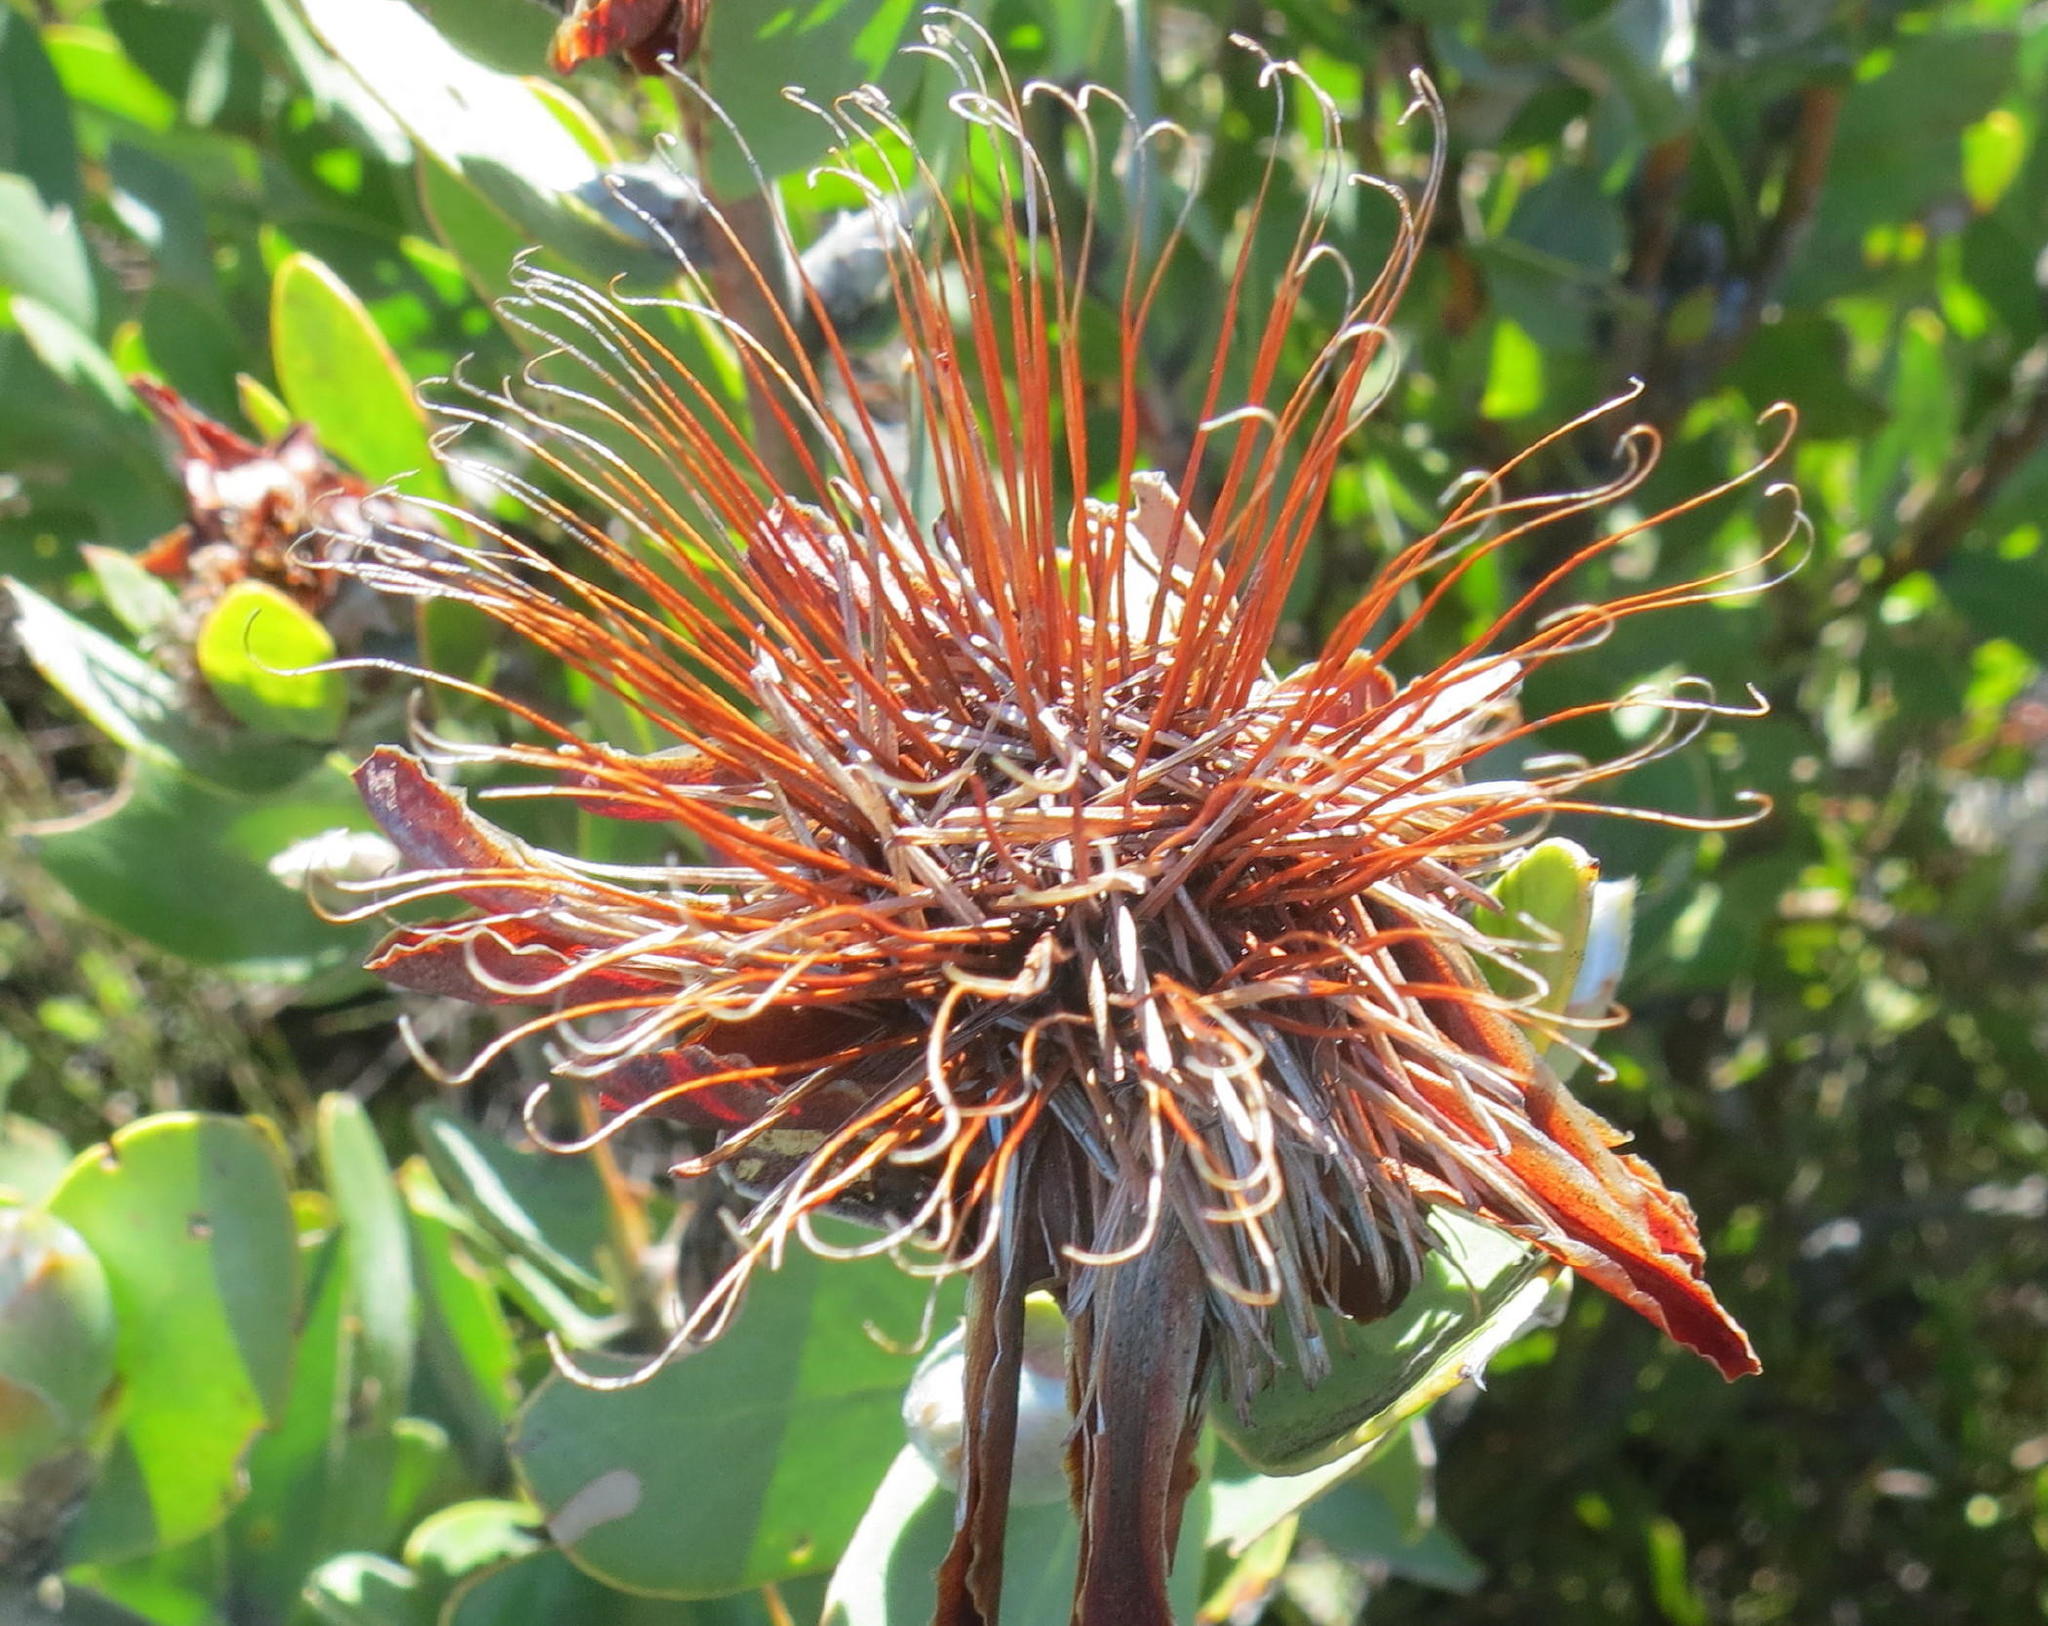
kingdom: Plantae
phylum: Tracheophyta
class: Magnoliopsida
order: Proteales
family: Proteaceae
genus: Protea
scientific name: Protea punctata
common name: Water sugarbush
